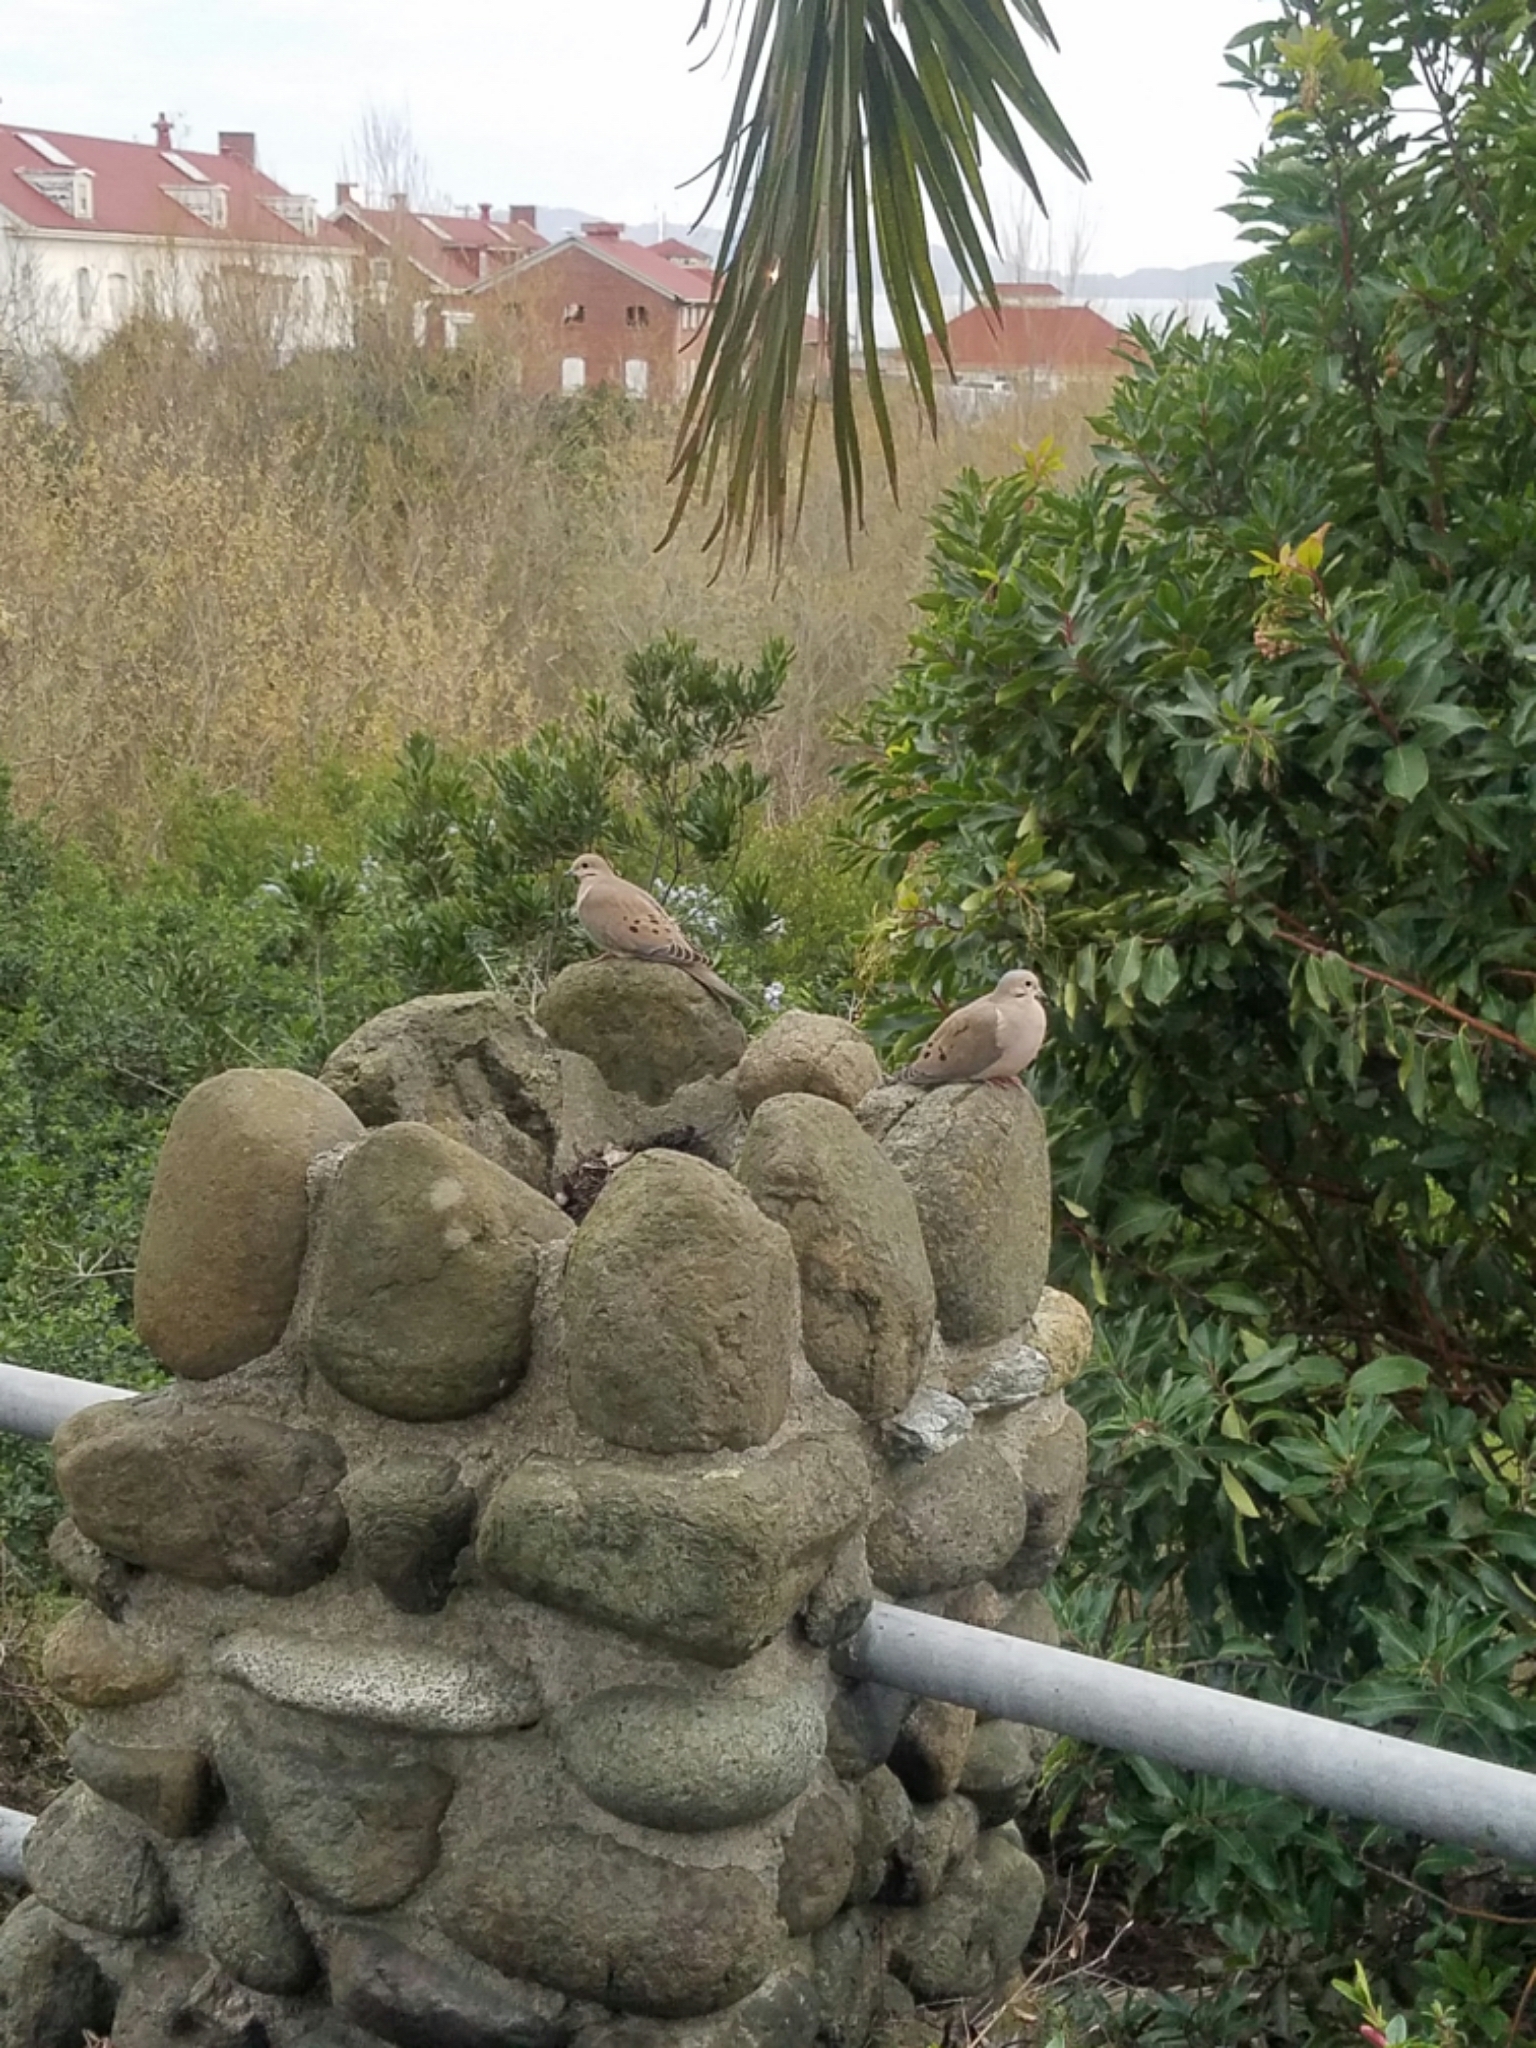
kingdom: Animalia
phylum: Chordata
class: Aves
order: Columbiformes
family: Columbidae
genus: Zenaida
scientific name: Zenaida macroura
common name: Mourning dove
